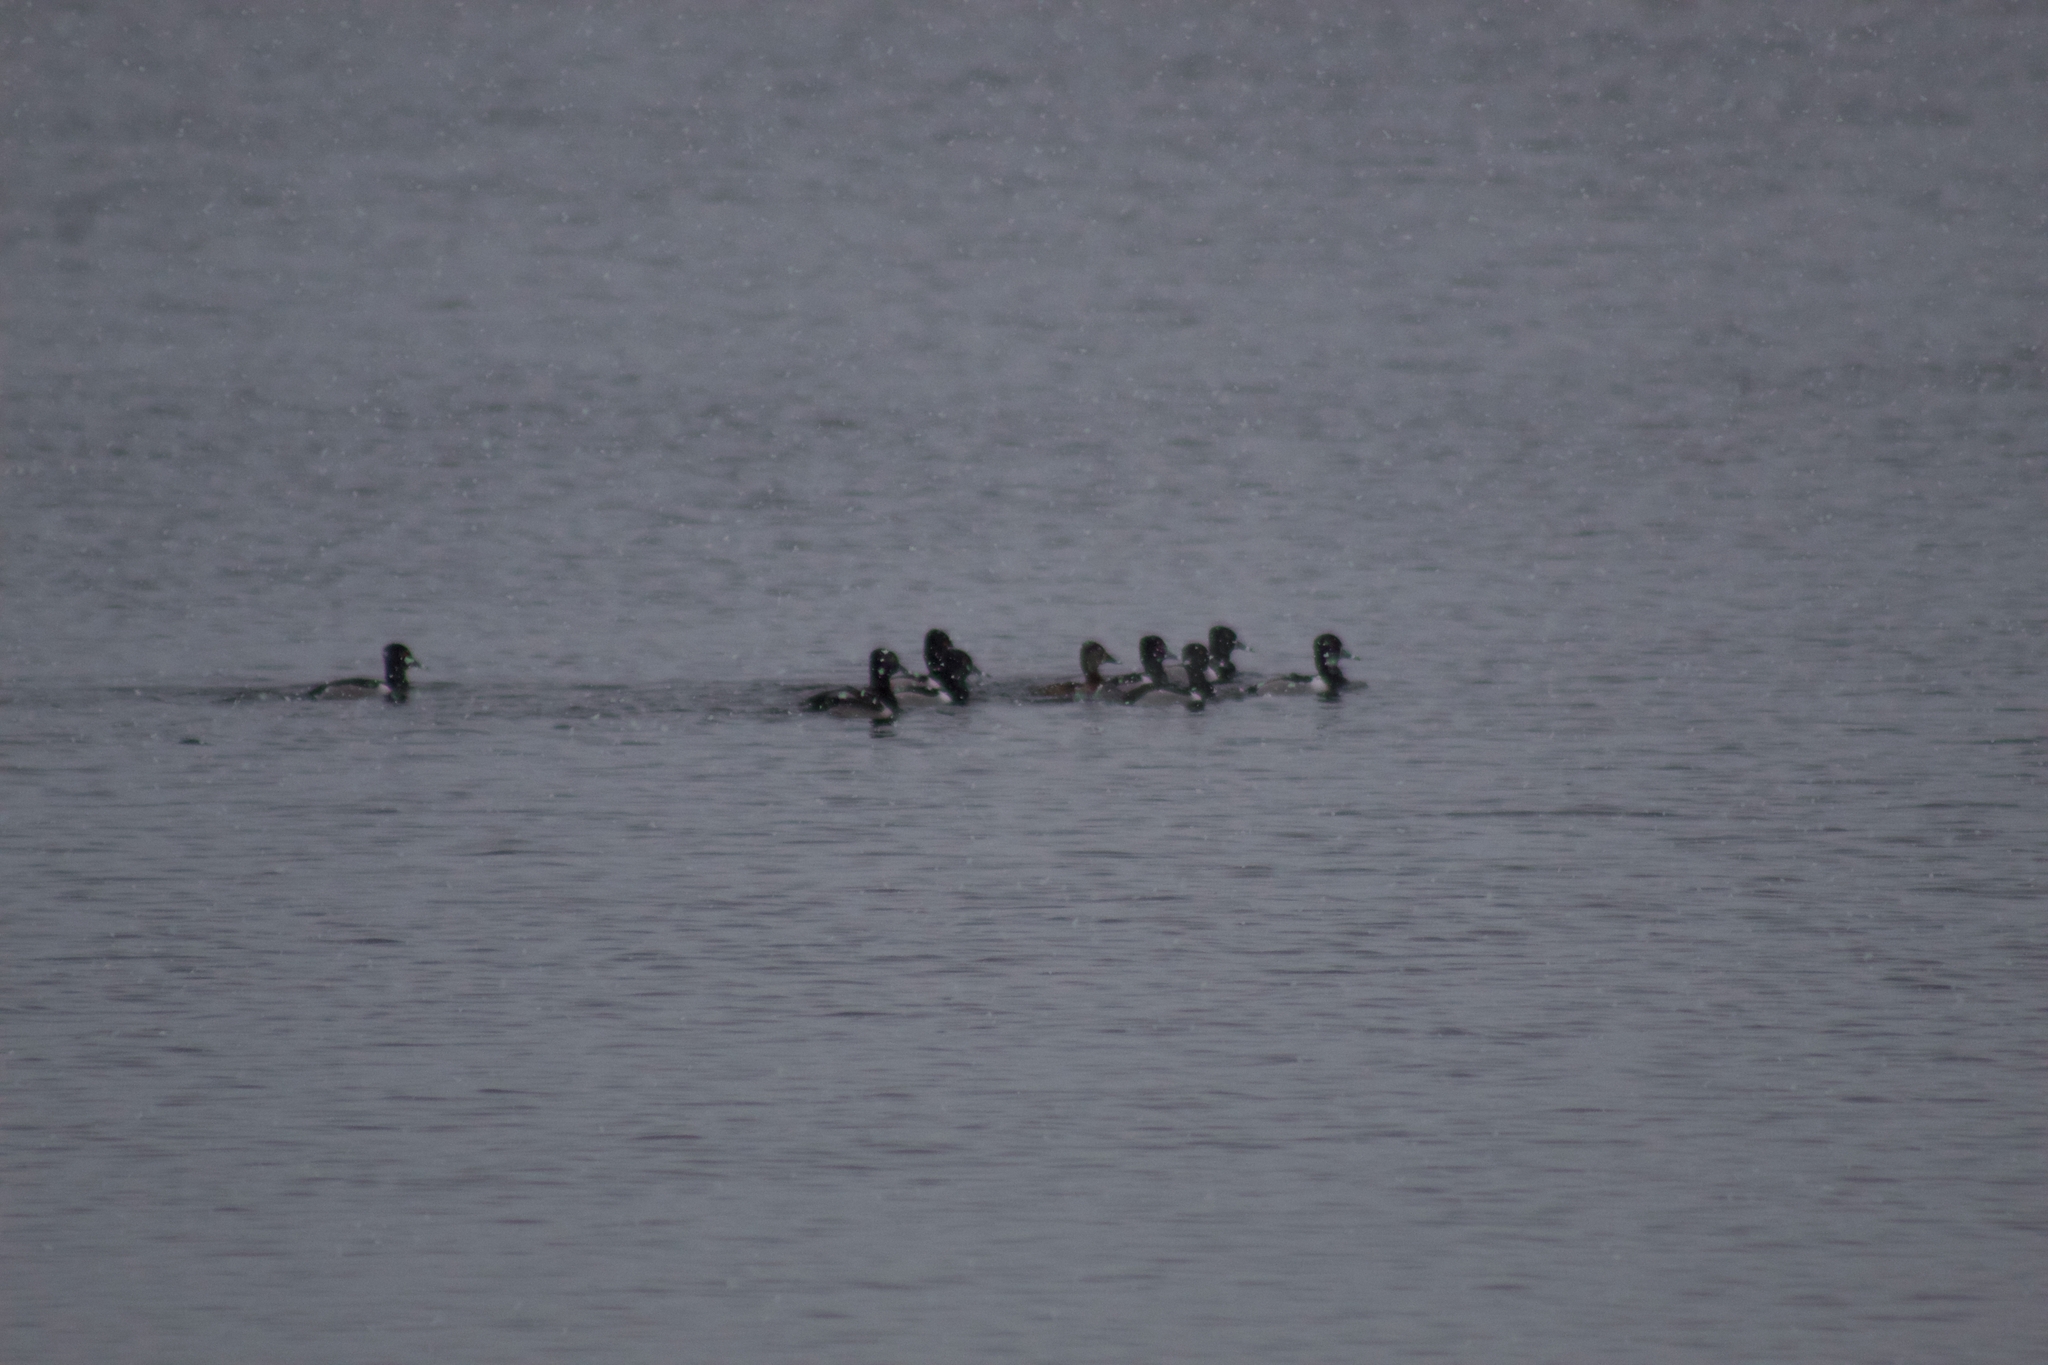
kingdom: Animalia
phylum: Chordata
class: Aves
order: Anseriformes
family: Anatidae
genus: Aythya
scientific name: Aythya collaris
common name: Ring-necked duck
